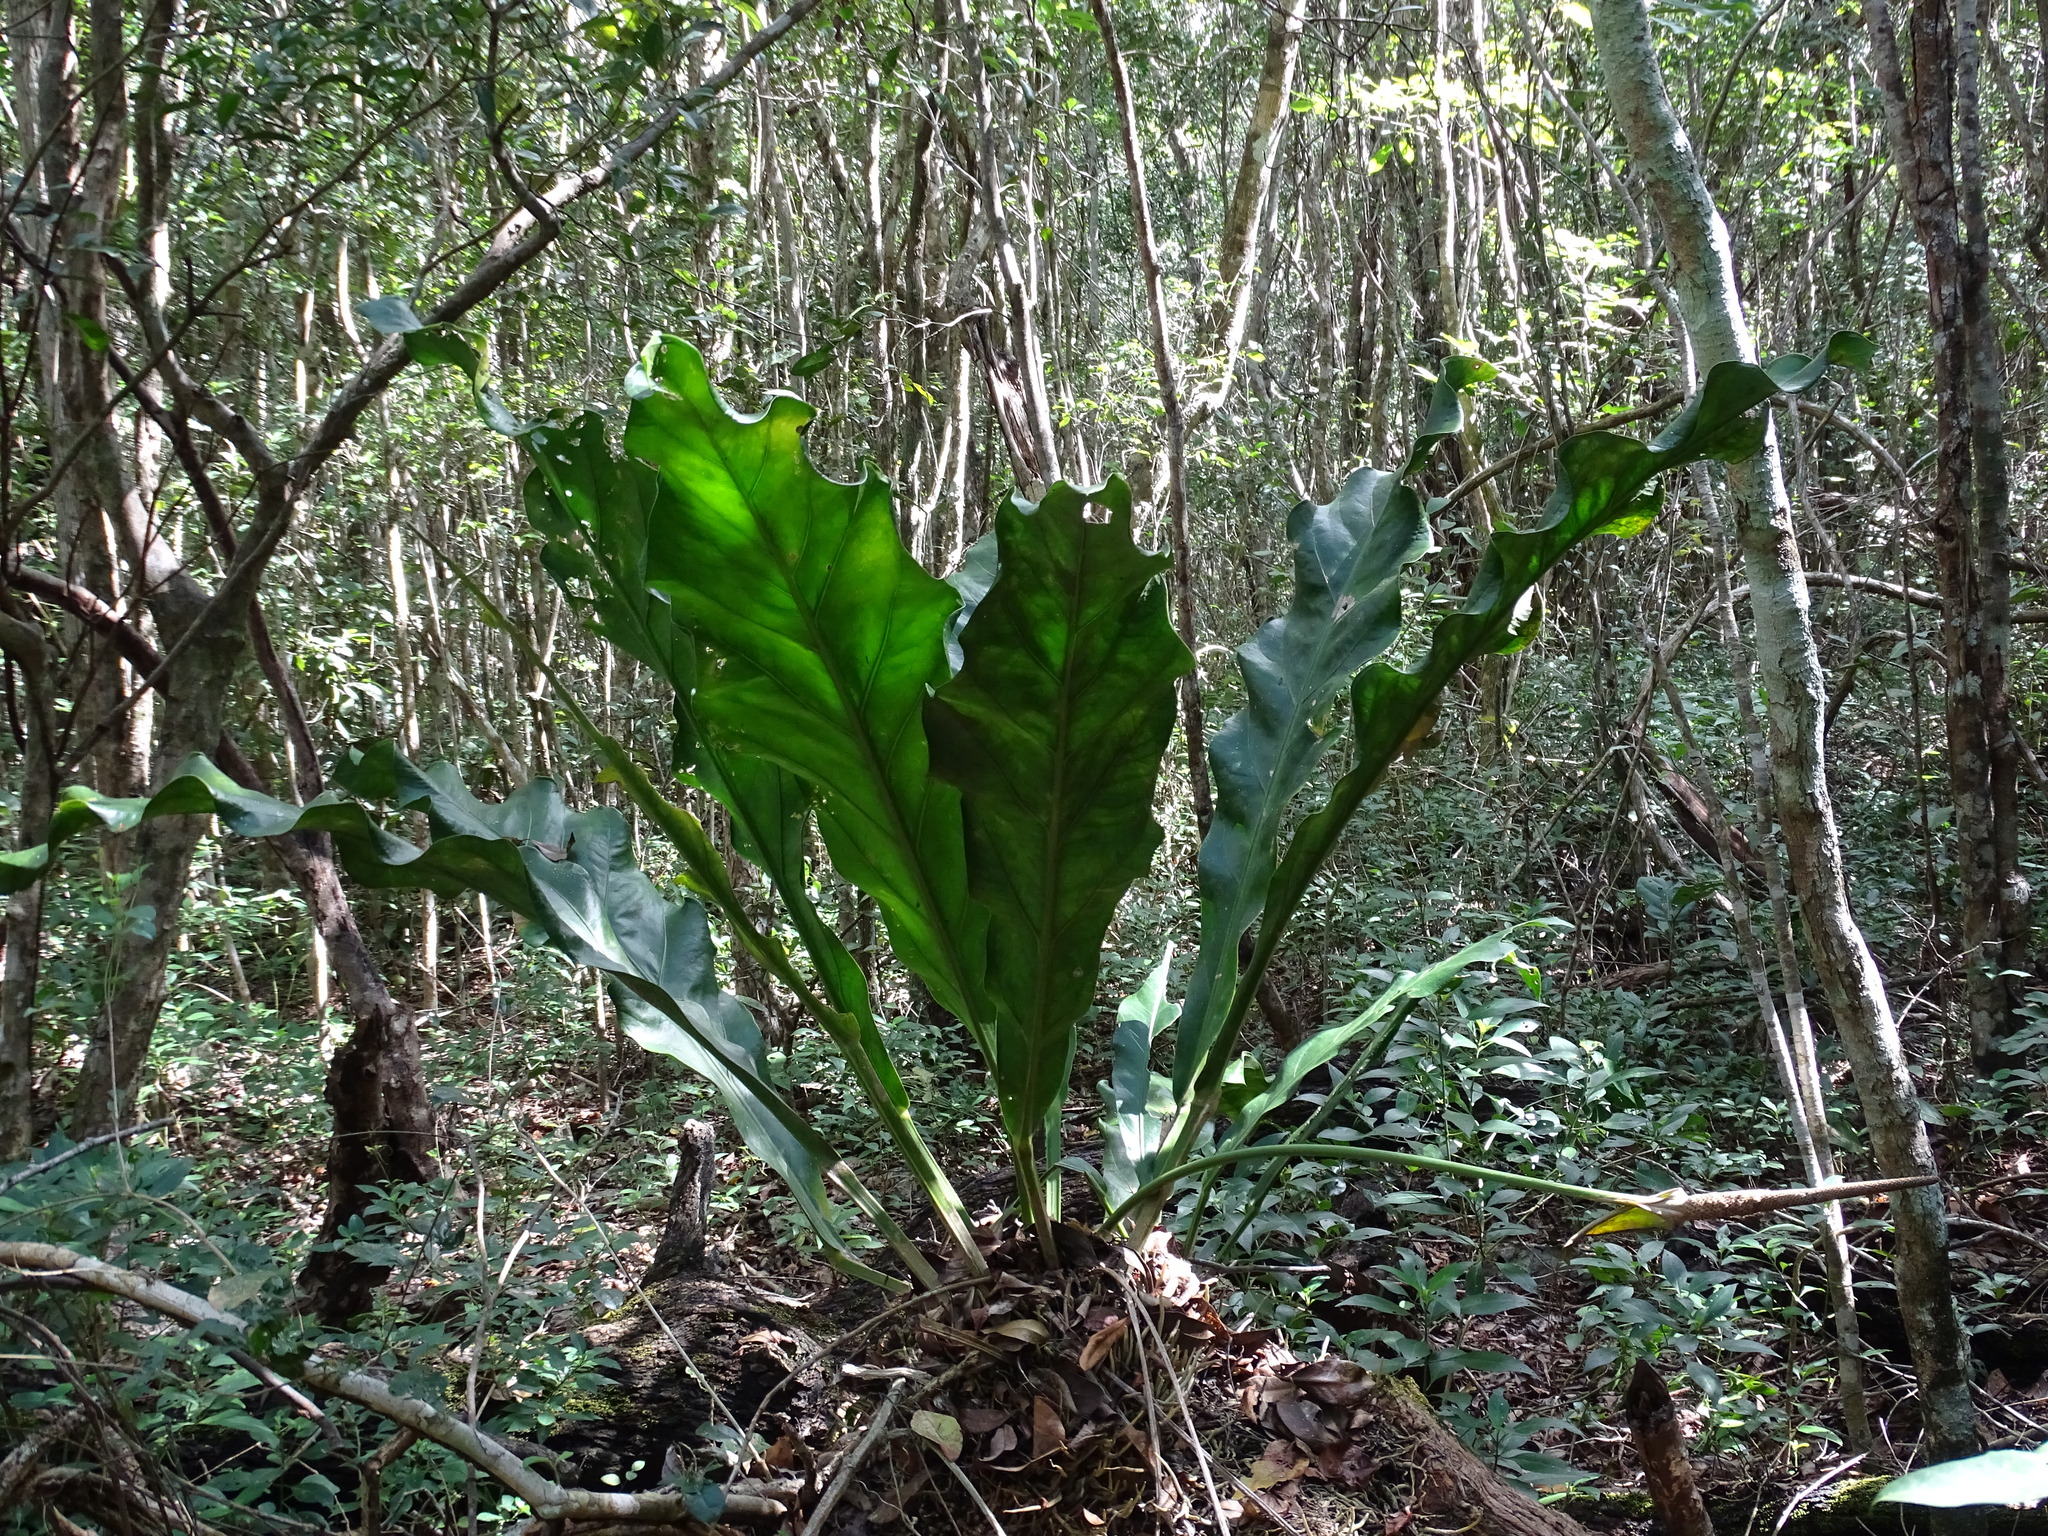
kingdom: Plantae
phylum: Tracheophyta
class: Liliopsida
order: Alismatales
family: Araceae
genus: Anthurium
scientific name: Anthurium schlechtendalii
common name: Laceleaf
